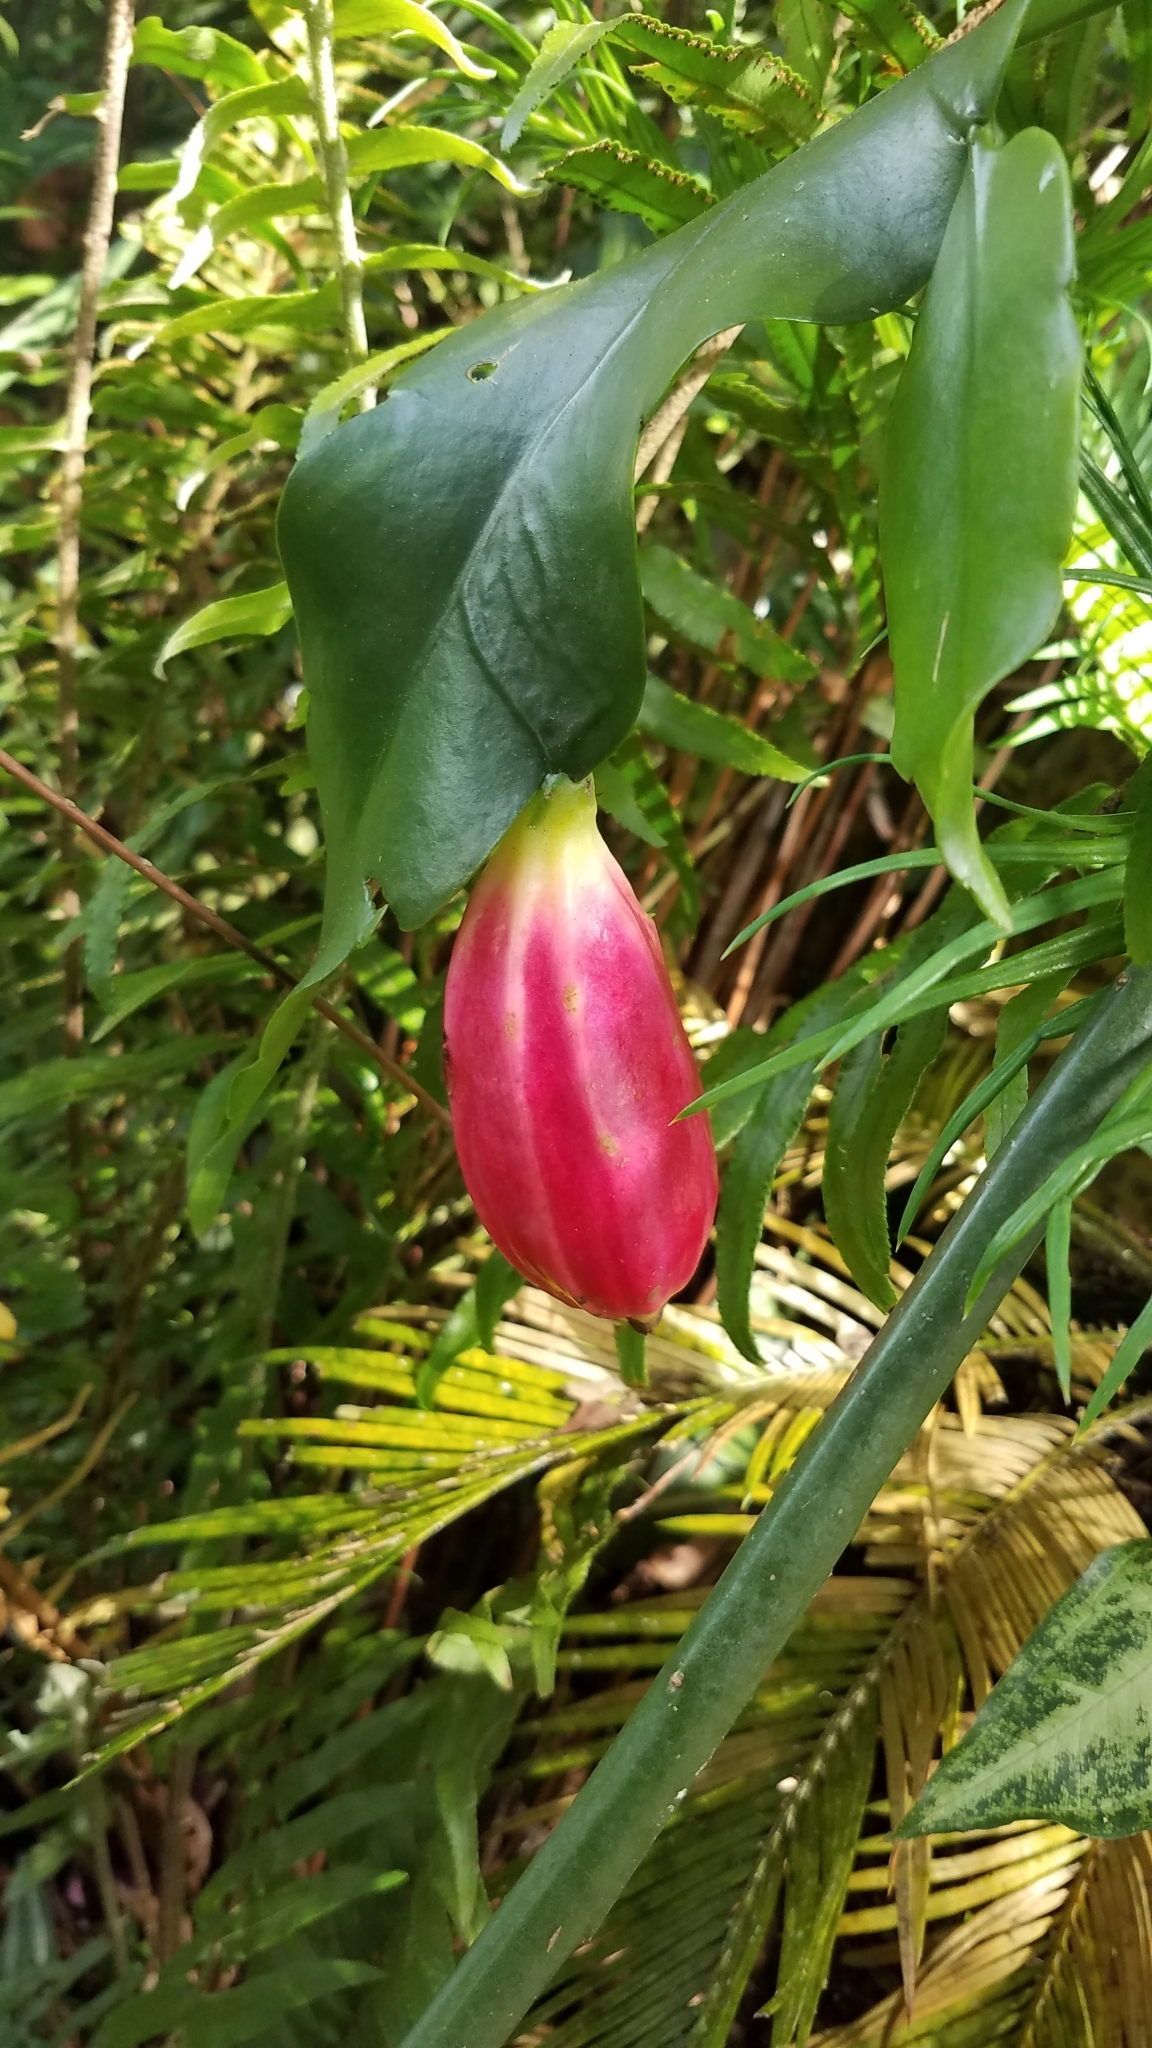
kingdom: Plantae
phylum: Tracheophyta
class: Magnoliopsida
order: Caryophyllales
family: Cactaceae
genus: Epiphyllum
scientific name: Epiphyllum oxypetalum
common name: Dutchman's pipe cactus
